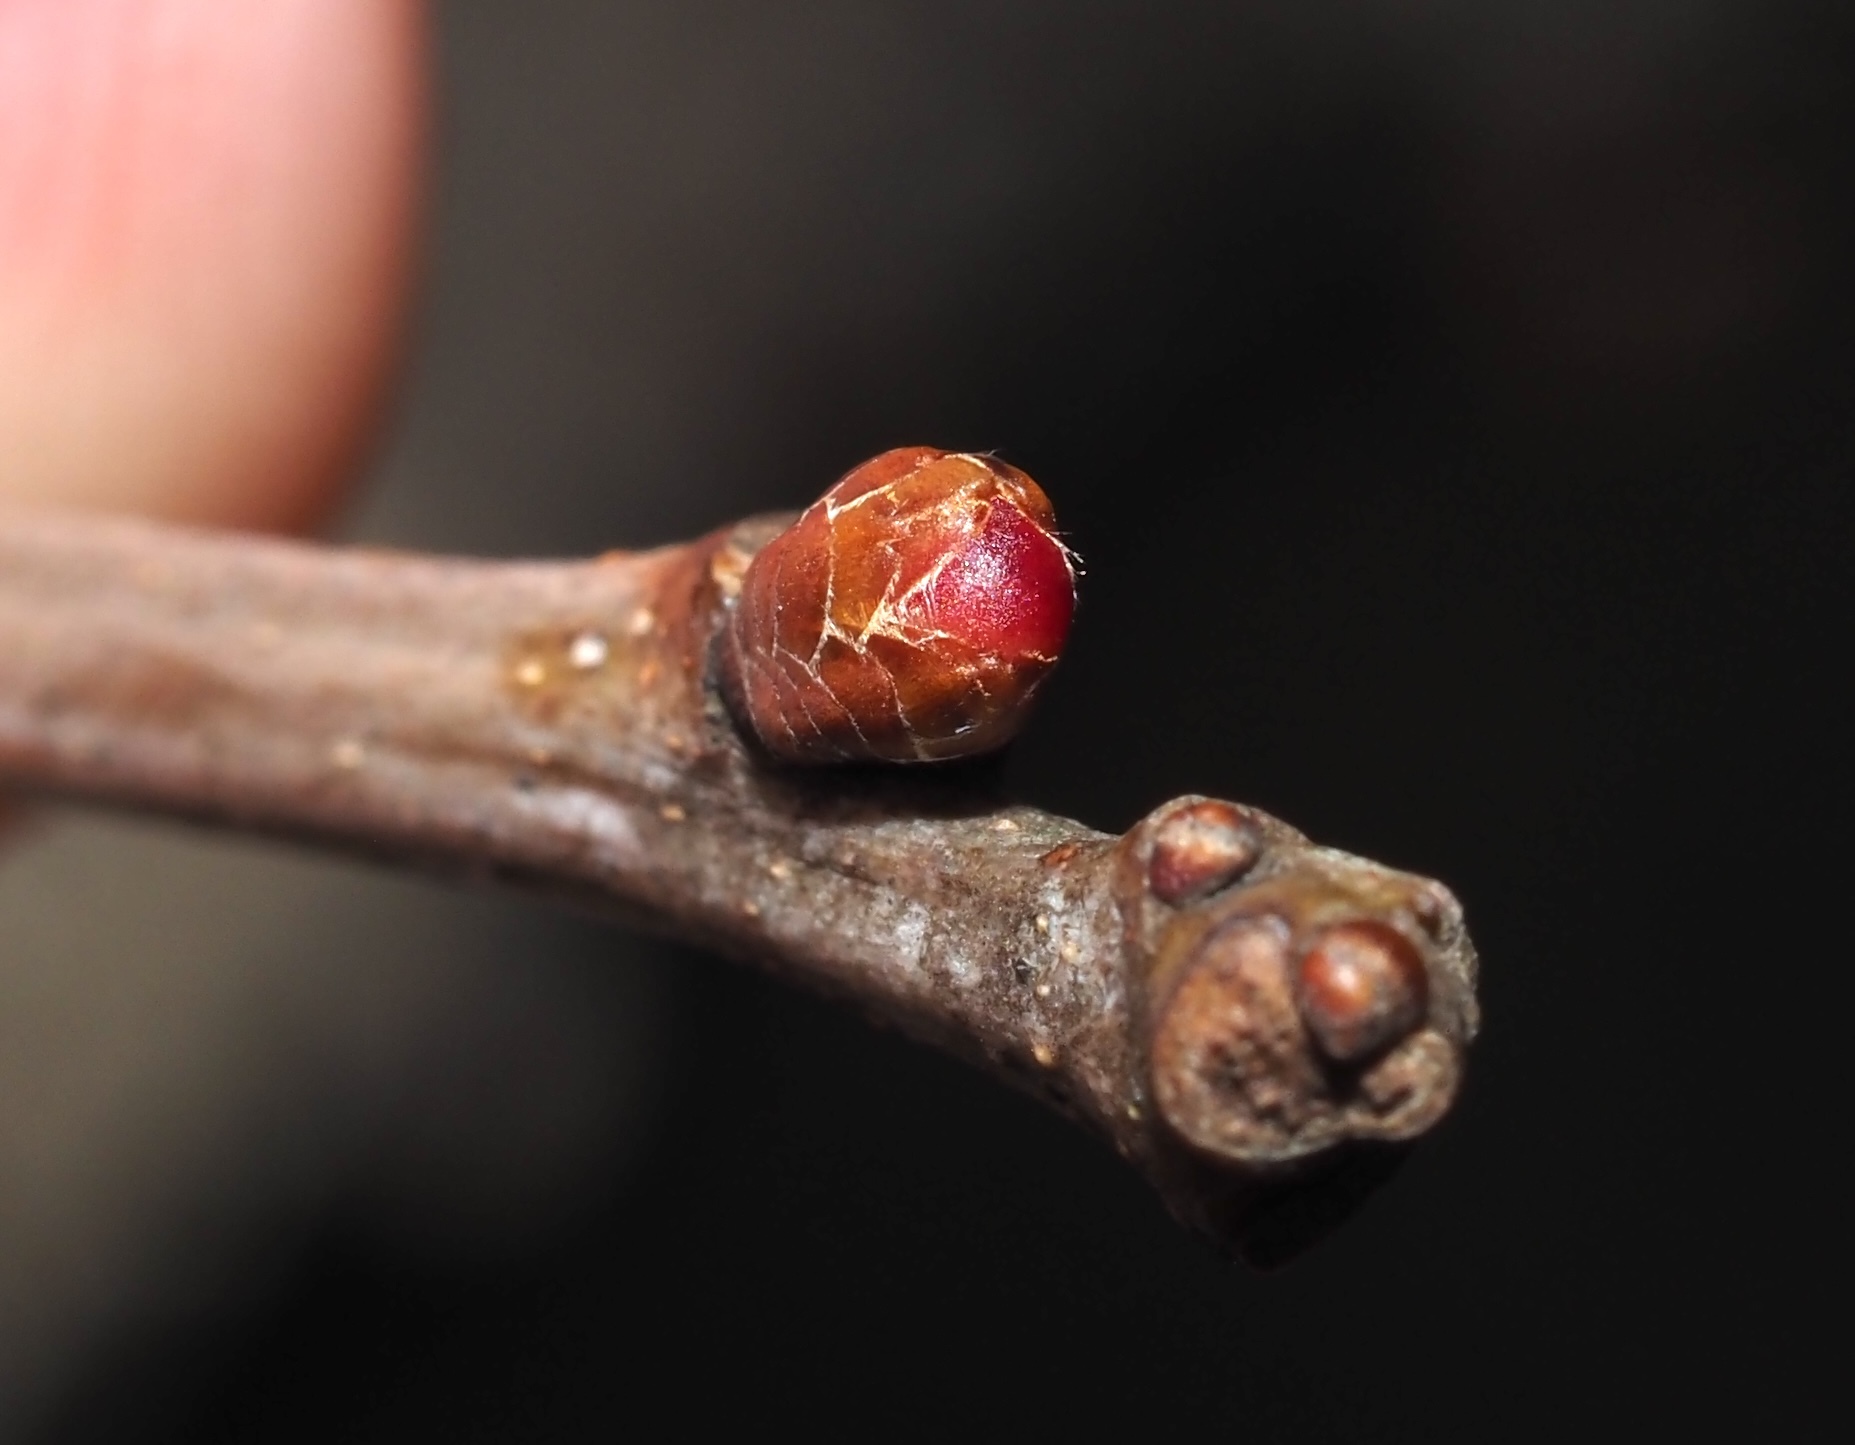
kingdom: Animalia
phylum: Arthropoda
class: Insecta
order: Hymenoptera
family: Cynipidae
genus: Neuroterus
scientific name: Neuroterus
